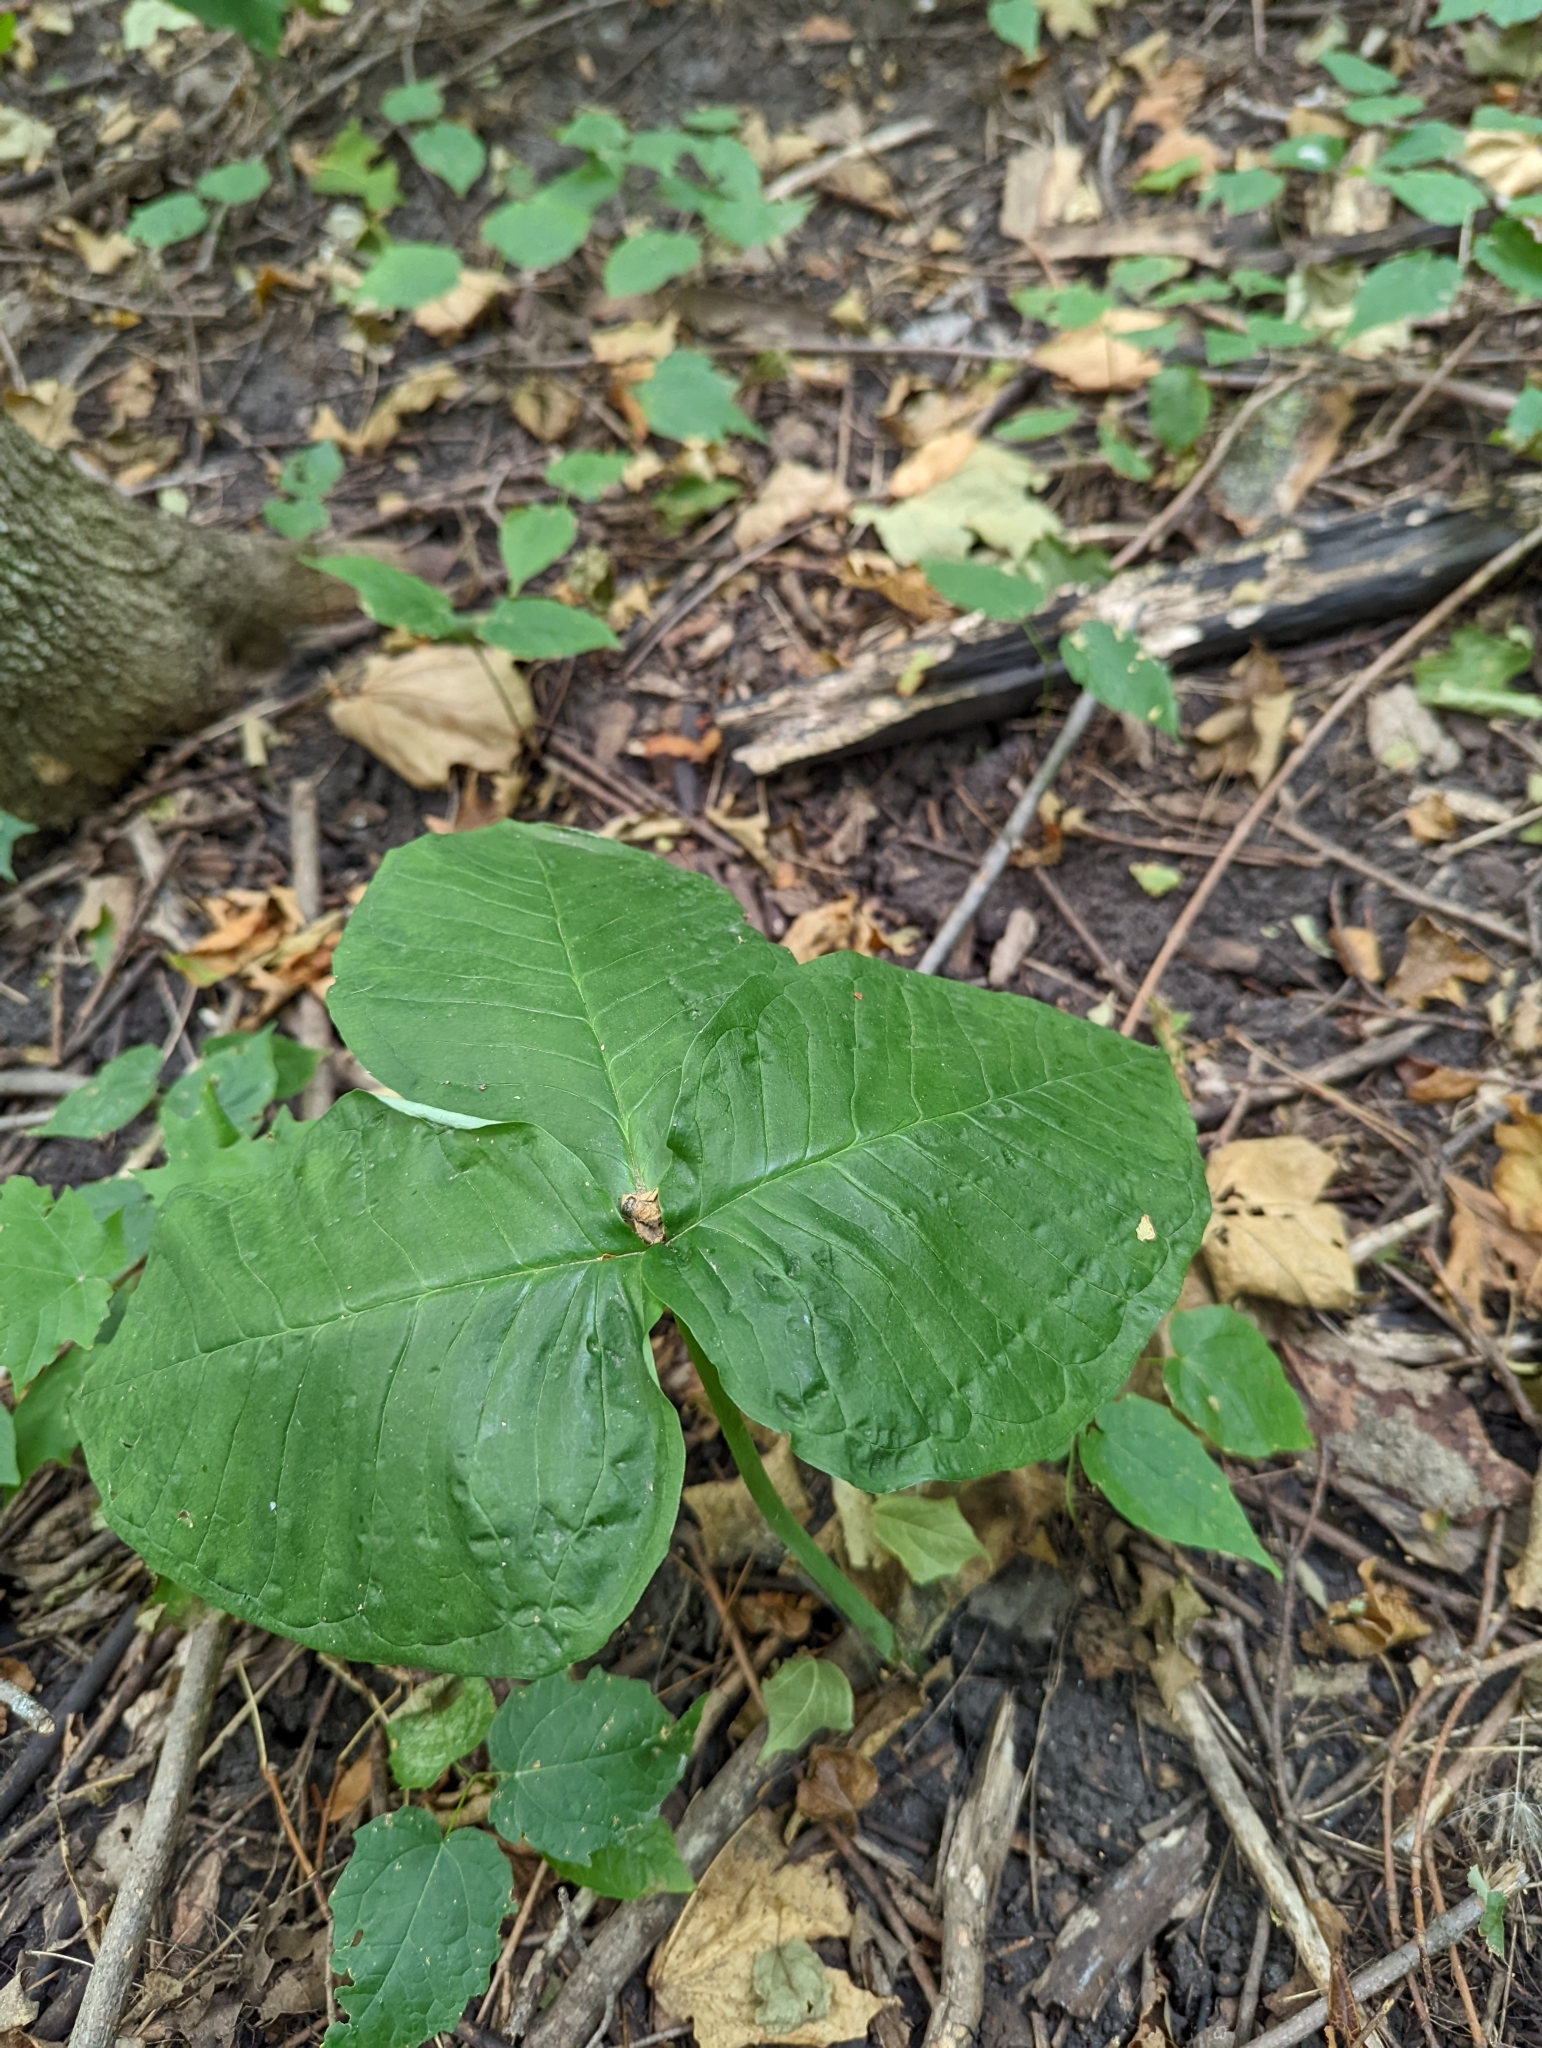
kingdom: Plantae
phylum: Tracheophyta
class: Liliopsida
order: Alismatales
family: Araceae
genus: Arisaema
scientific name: Arisaema triphyllum
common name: Jack-in-the-pulpit
